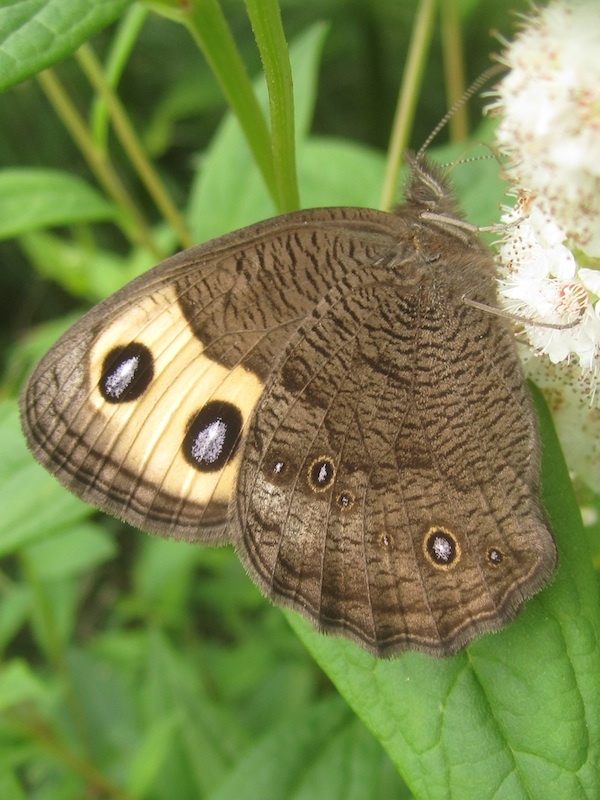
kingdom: Animalia
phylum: Arthropoda
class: Insecta
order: Lepidoptera
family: Nymphalidae
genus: Cercyonis
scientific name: Cercyonis pegala
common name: Common wood-nymph
